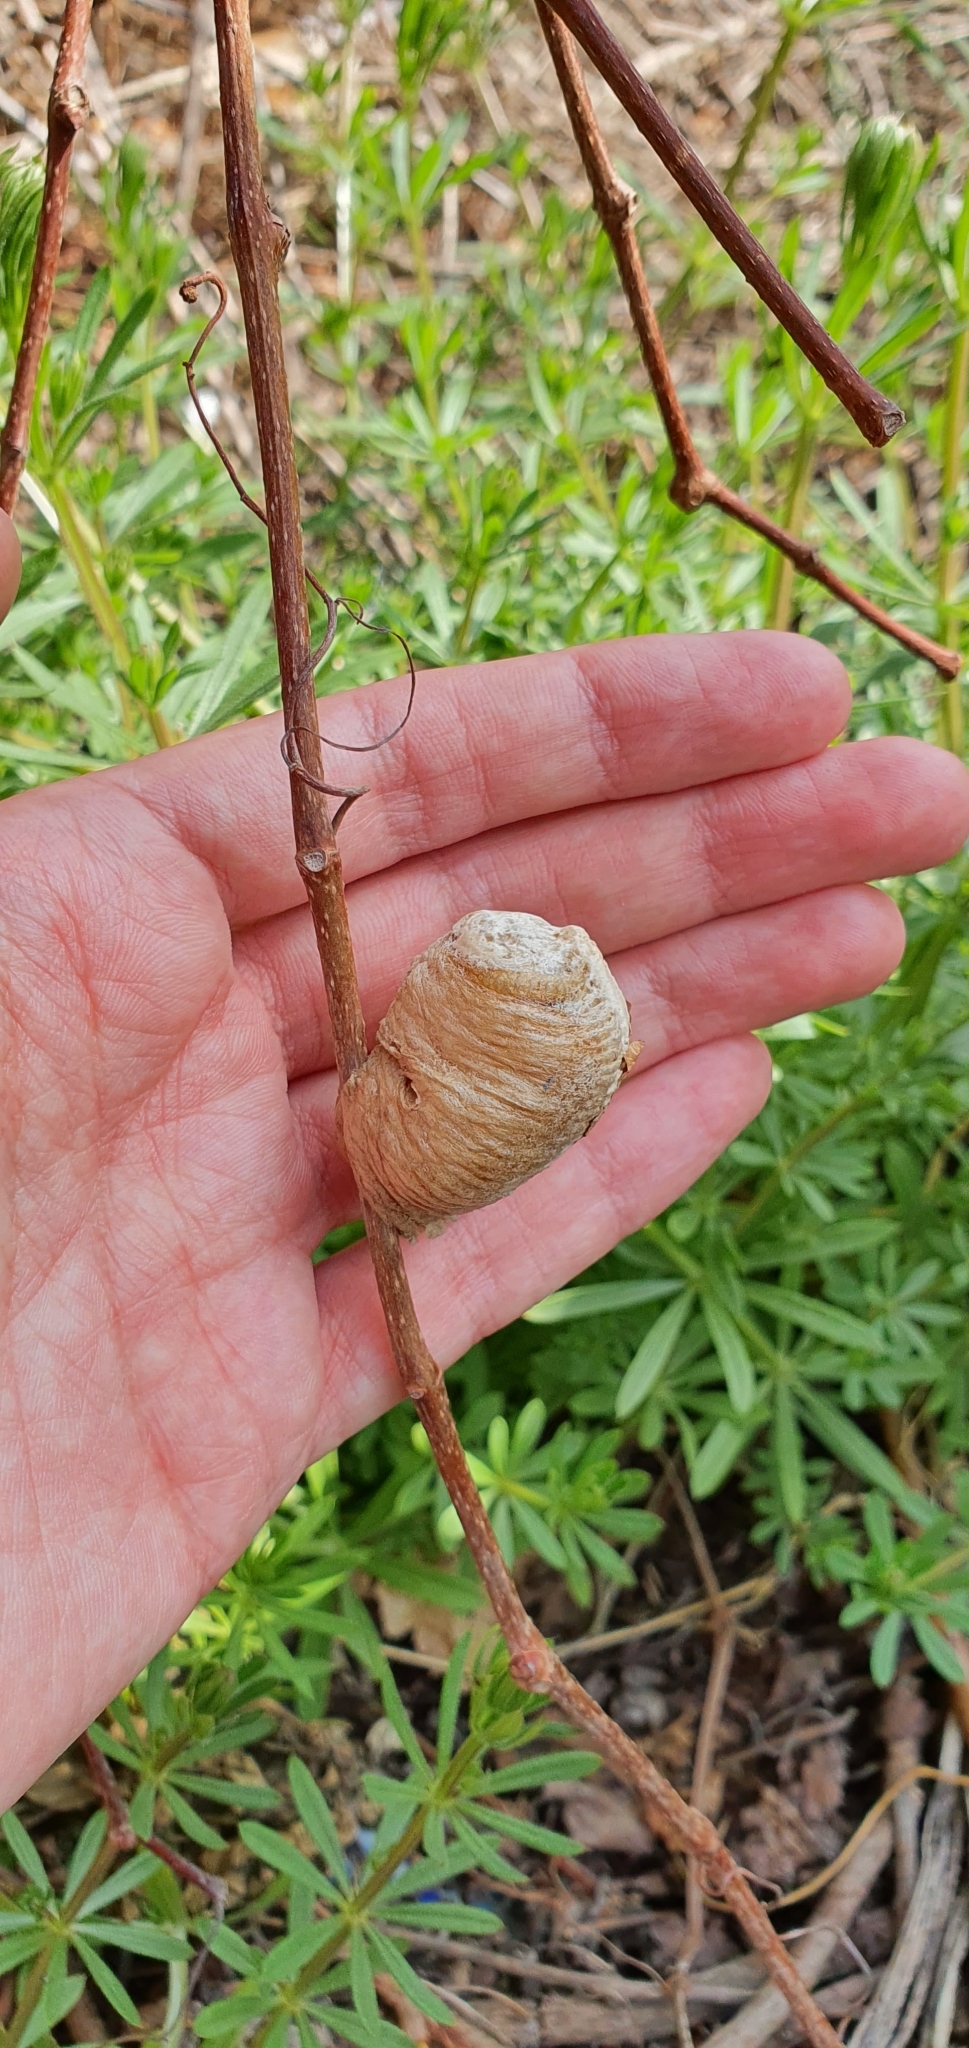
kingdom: Animalia
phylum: Arthropoda
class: Insecta
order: Mantodea
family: Mantidae
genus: Sphodromantis
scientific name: Sphodromantis viridis
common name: Giant african mantis
